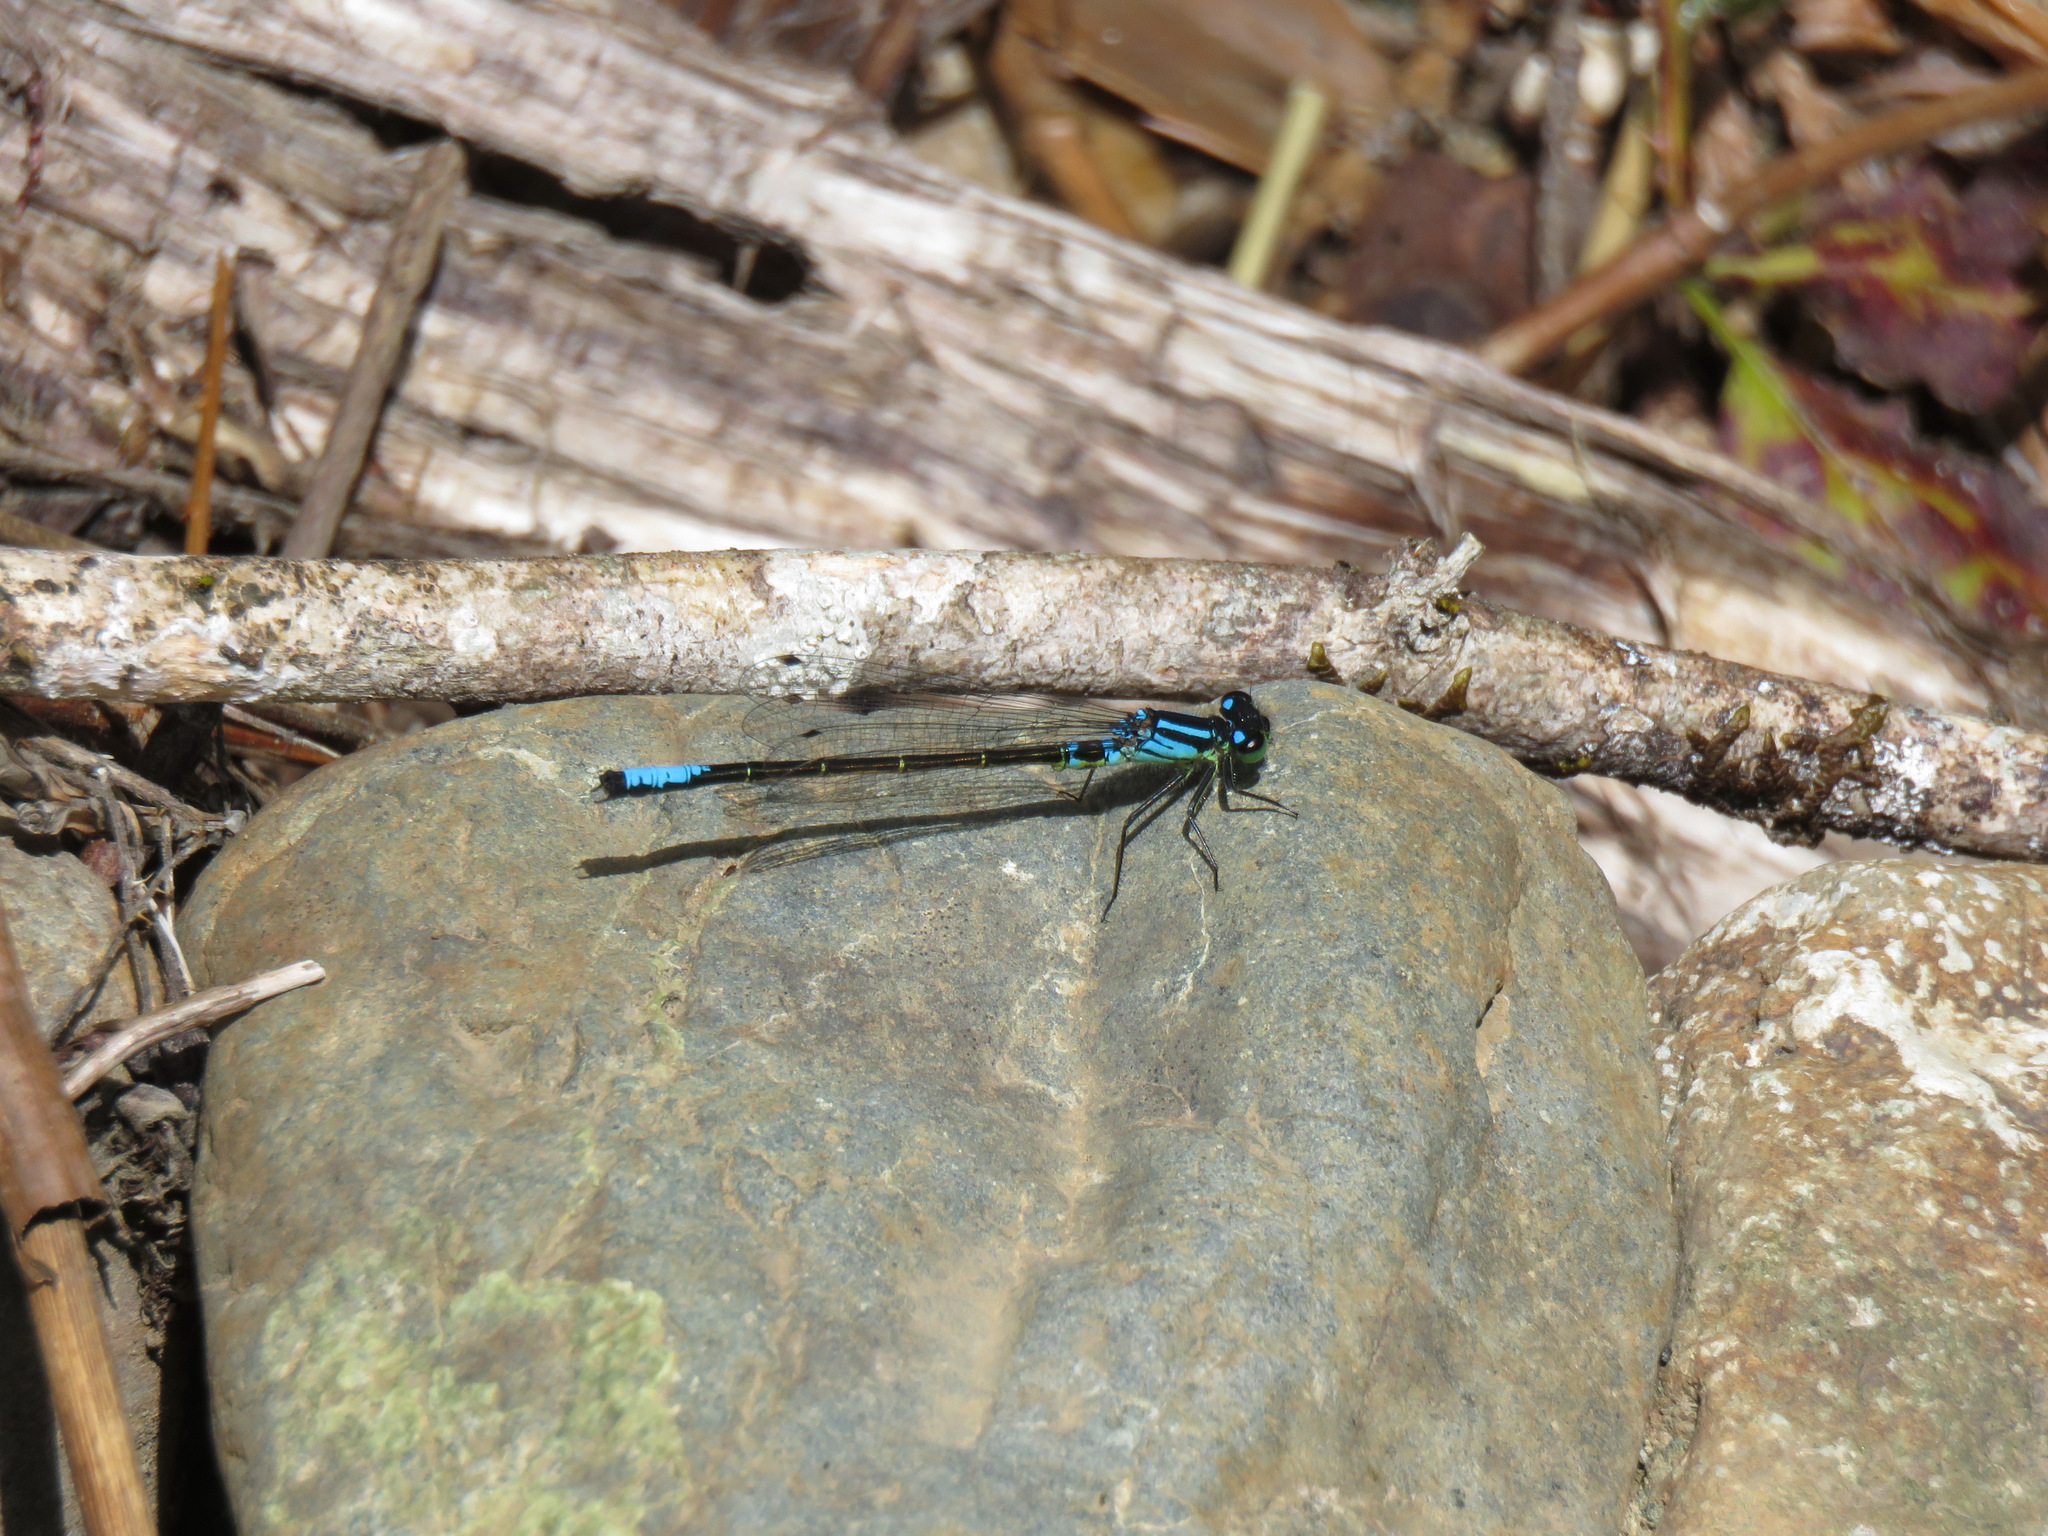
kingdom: Animalia
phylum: Arthropoda
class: Insecta
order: Odonata
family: Coenagrionidae
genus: Ischnura
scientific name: Ischnura erratica
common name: Swift forktail
